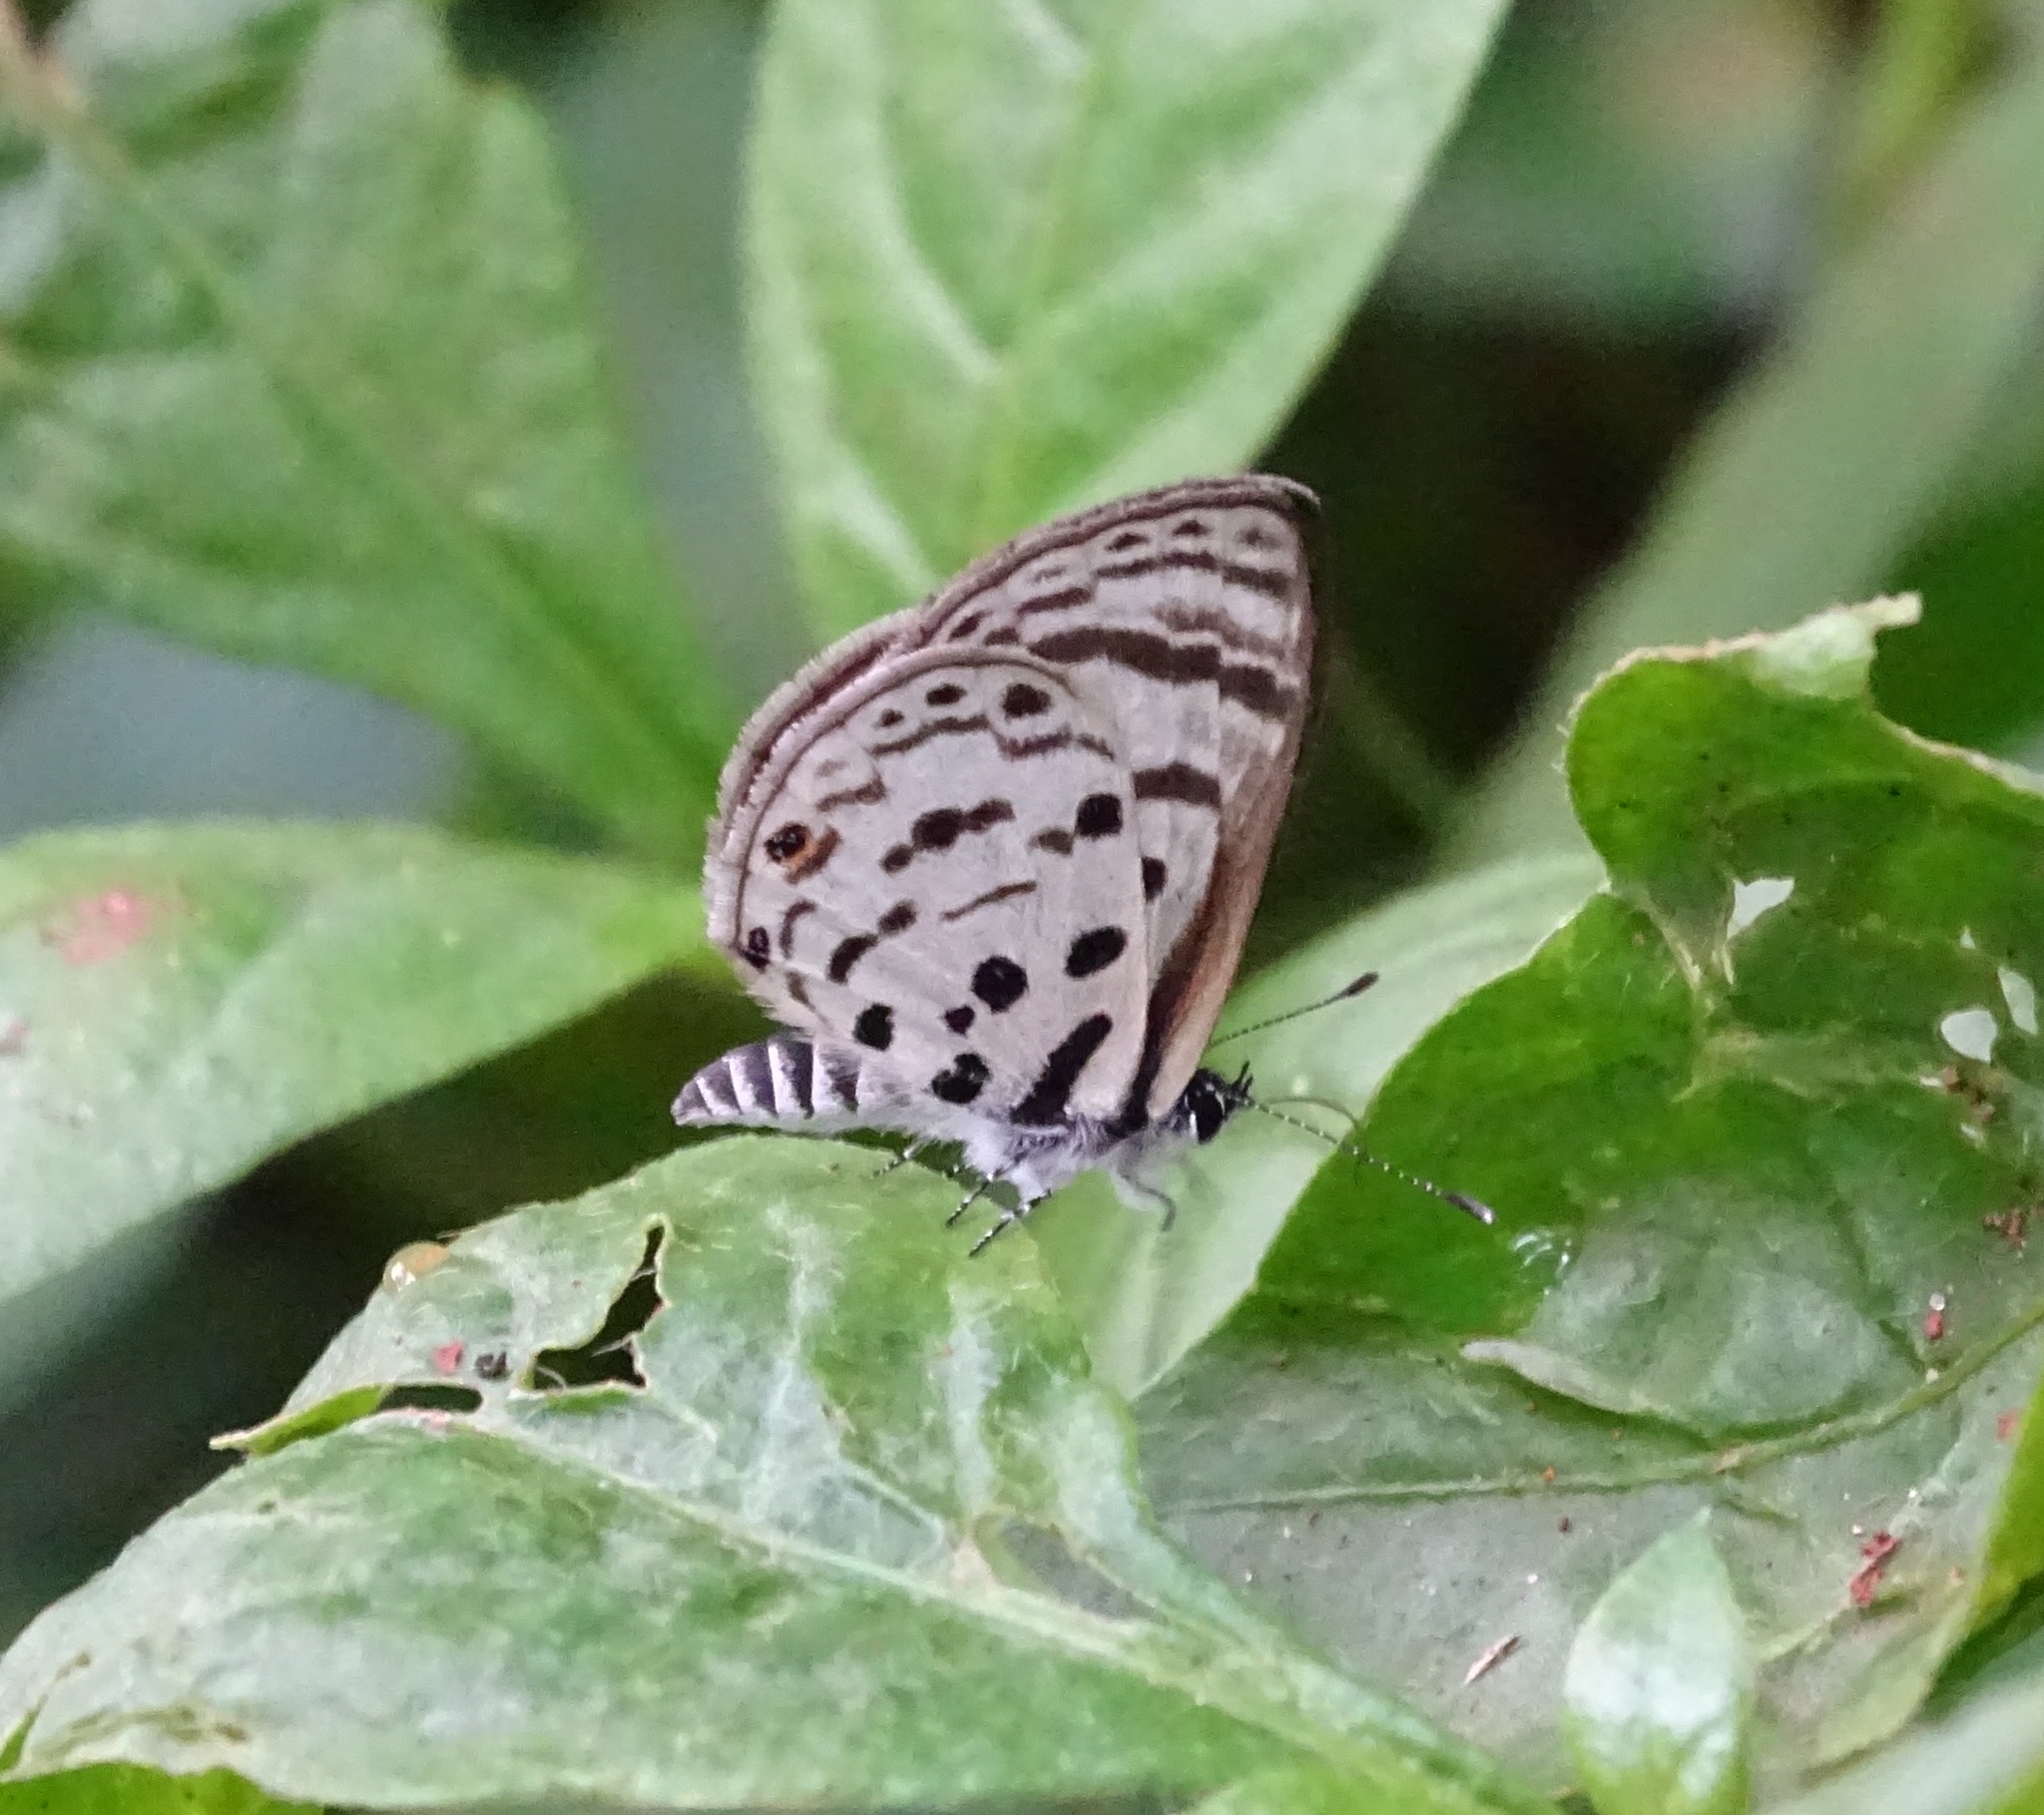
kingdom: Animalia
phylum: Arthropoda
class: Insecta
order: Lepidoptera
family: Lycaenidae
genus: Azanus
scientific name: Azanus mirza
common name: Mirza babul blue
